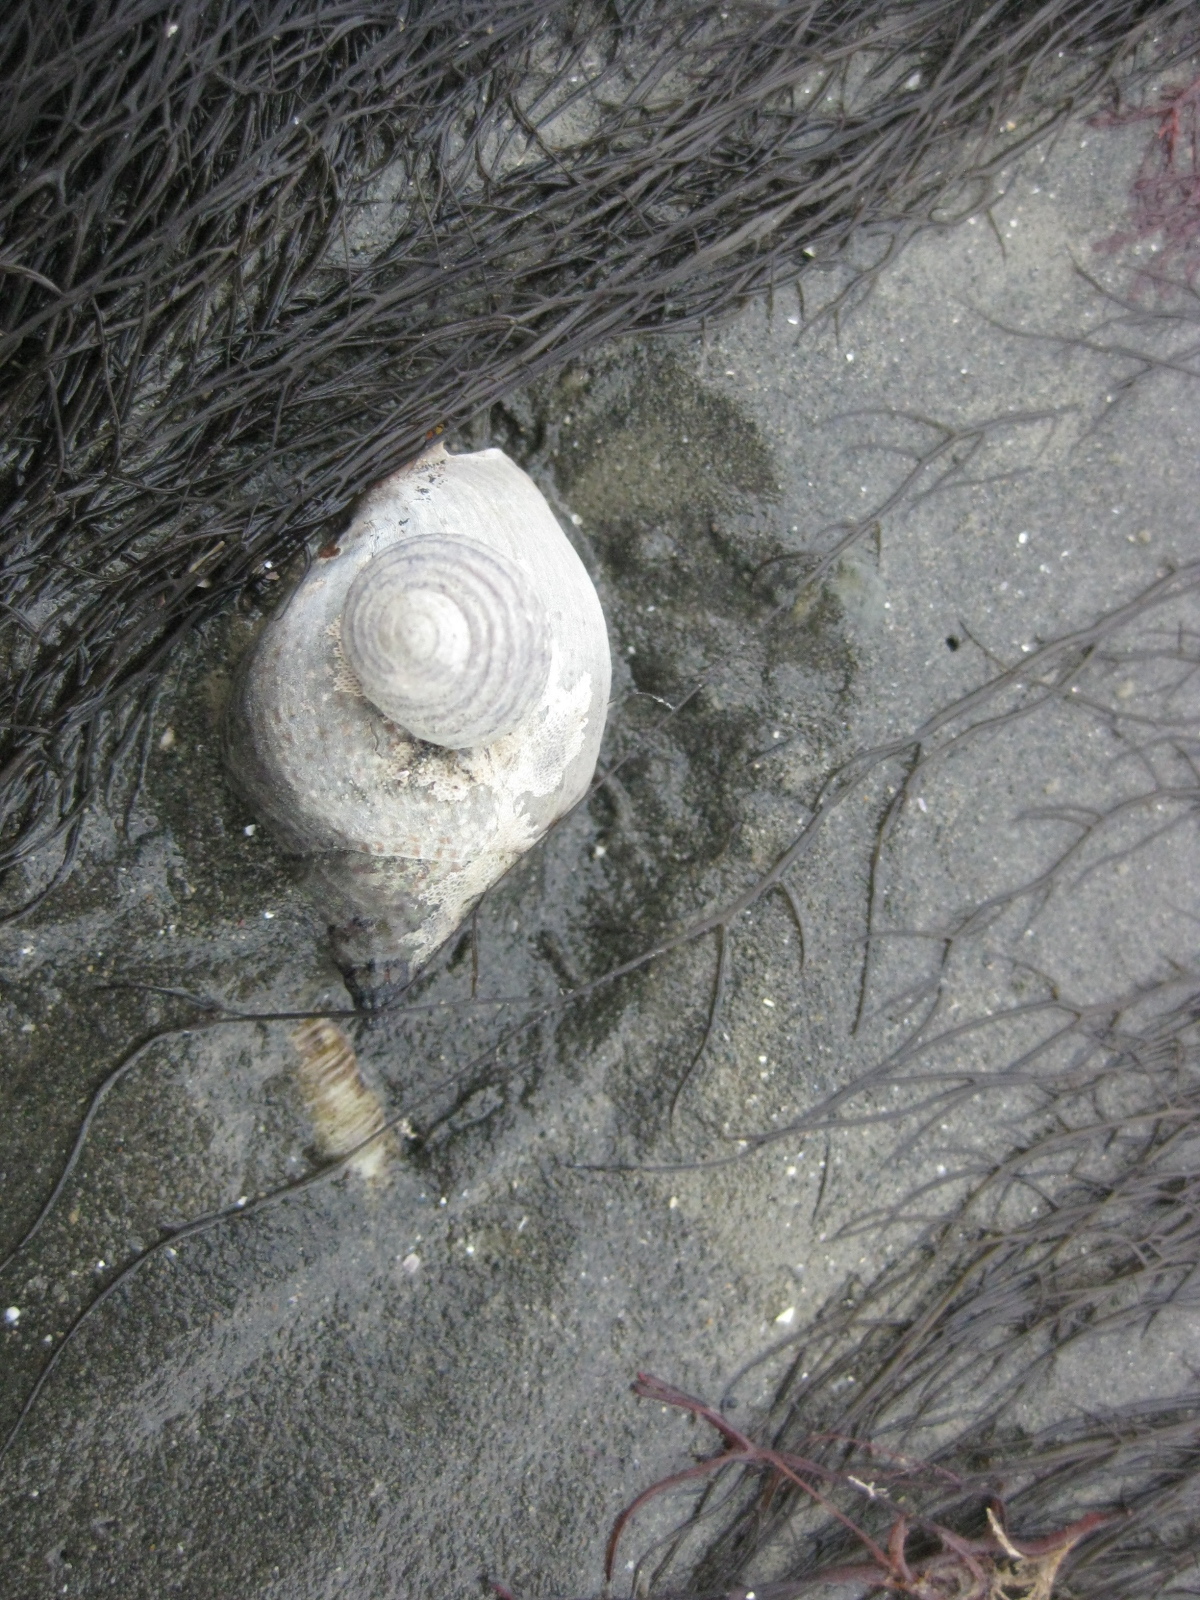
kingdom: Animalia
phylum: Mollusca
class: Gastropoda
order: Neogastropoda
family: Cominellidae
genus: Cominella
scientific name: Cominella adspersa
